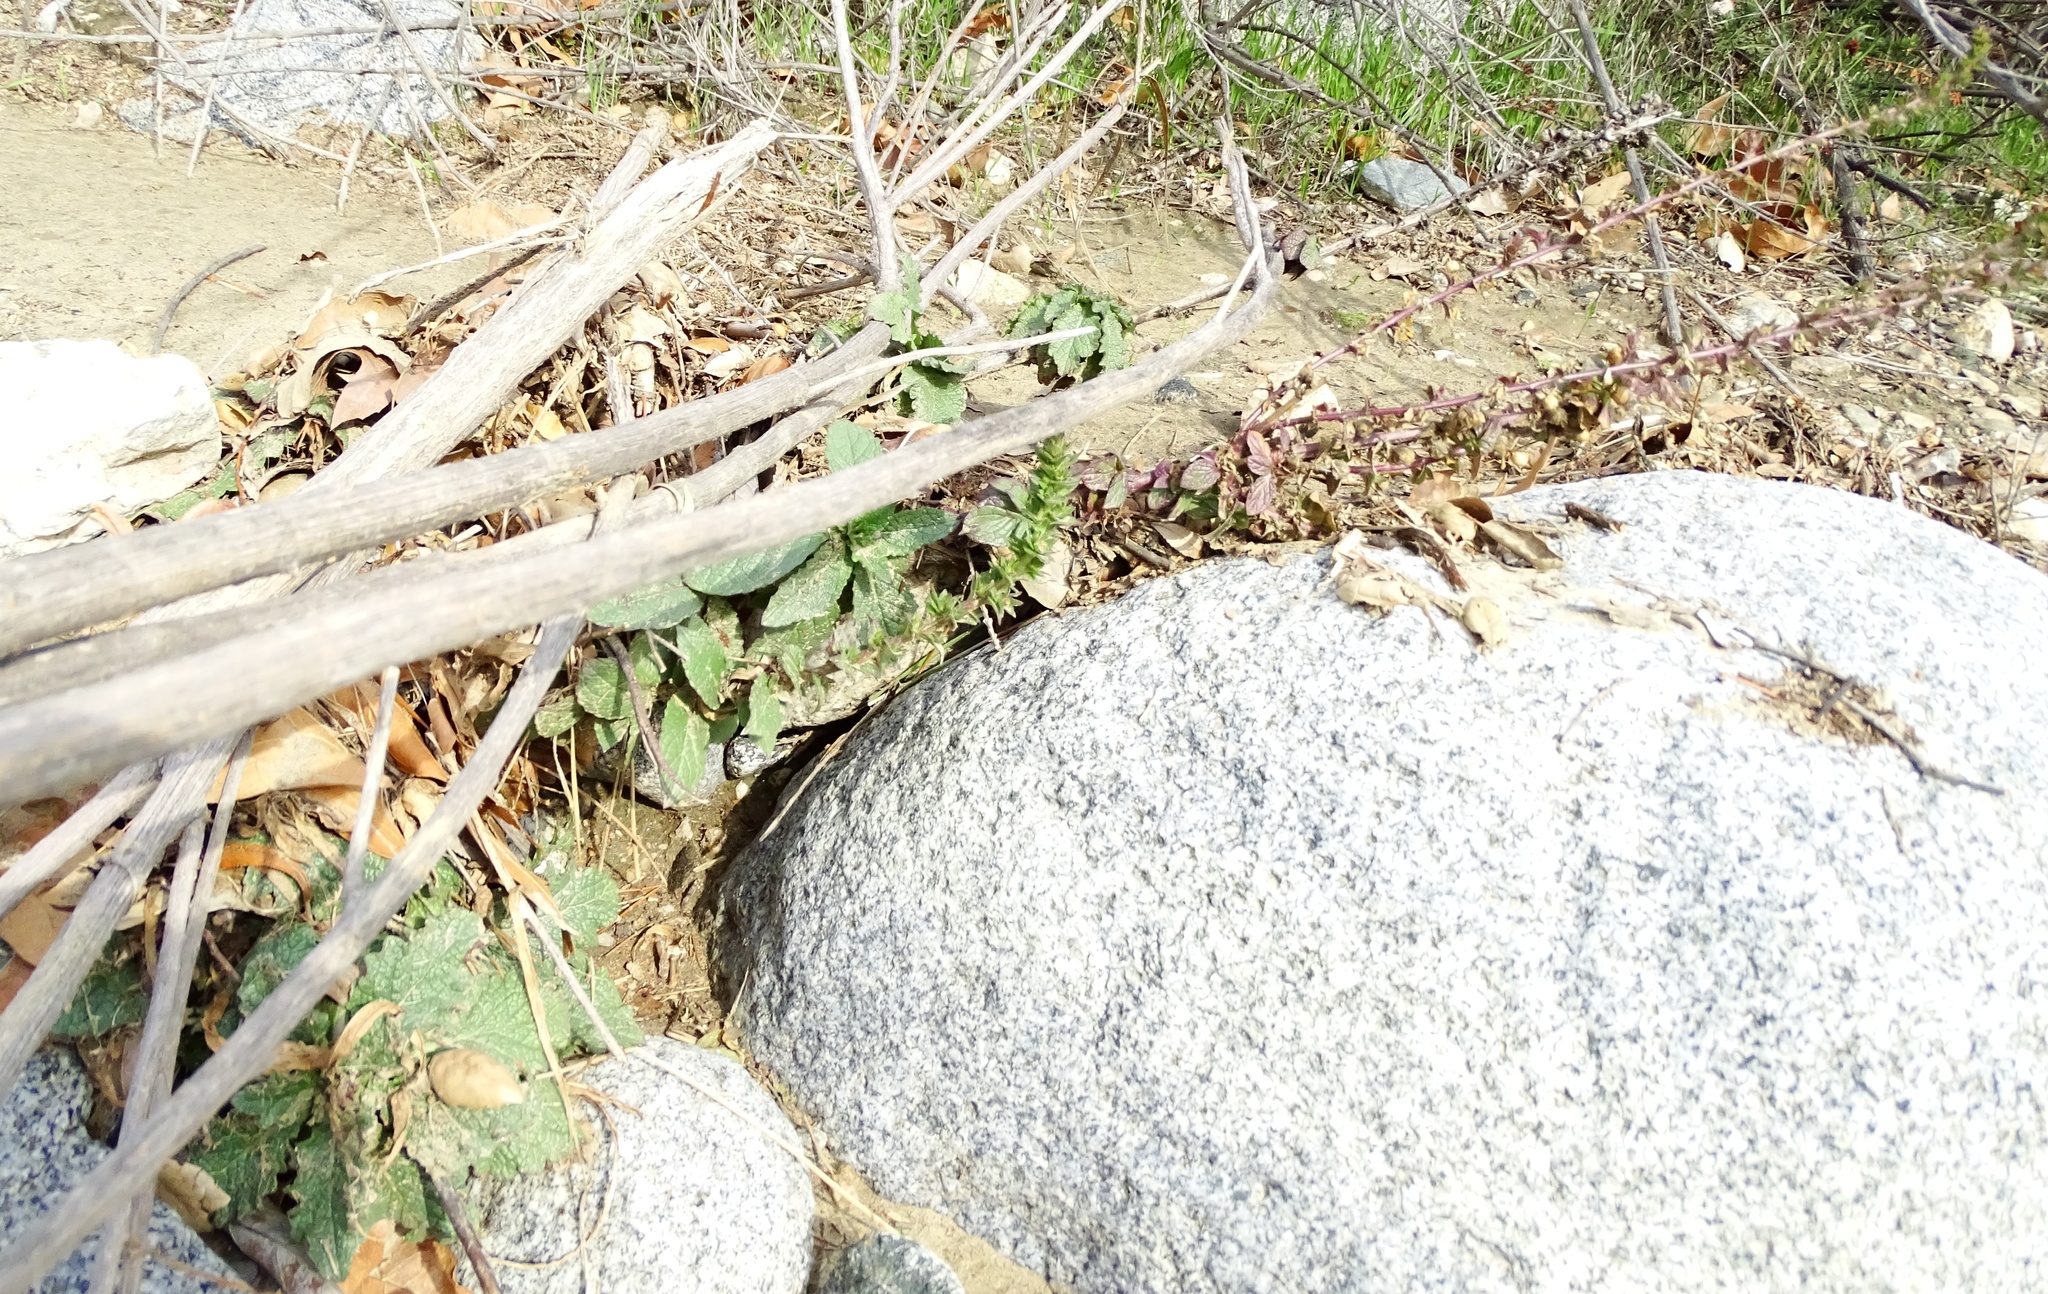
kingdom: Plantae
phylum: Tracheophyta
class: Magnoliopsida
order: Lamiales
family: Scrophulariaceae
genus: Verbascum
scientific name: Verbascum virgatum
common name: Twiggy mullein
